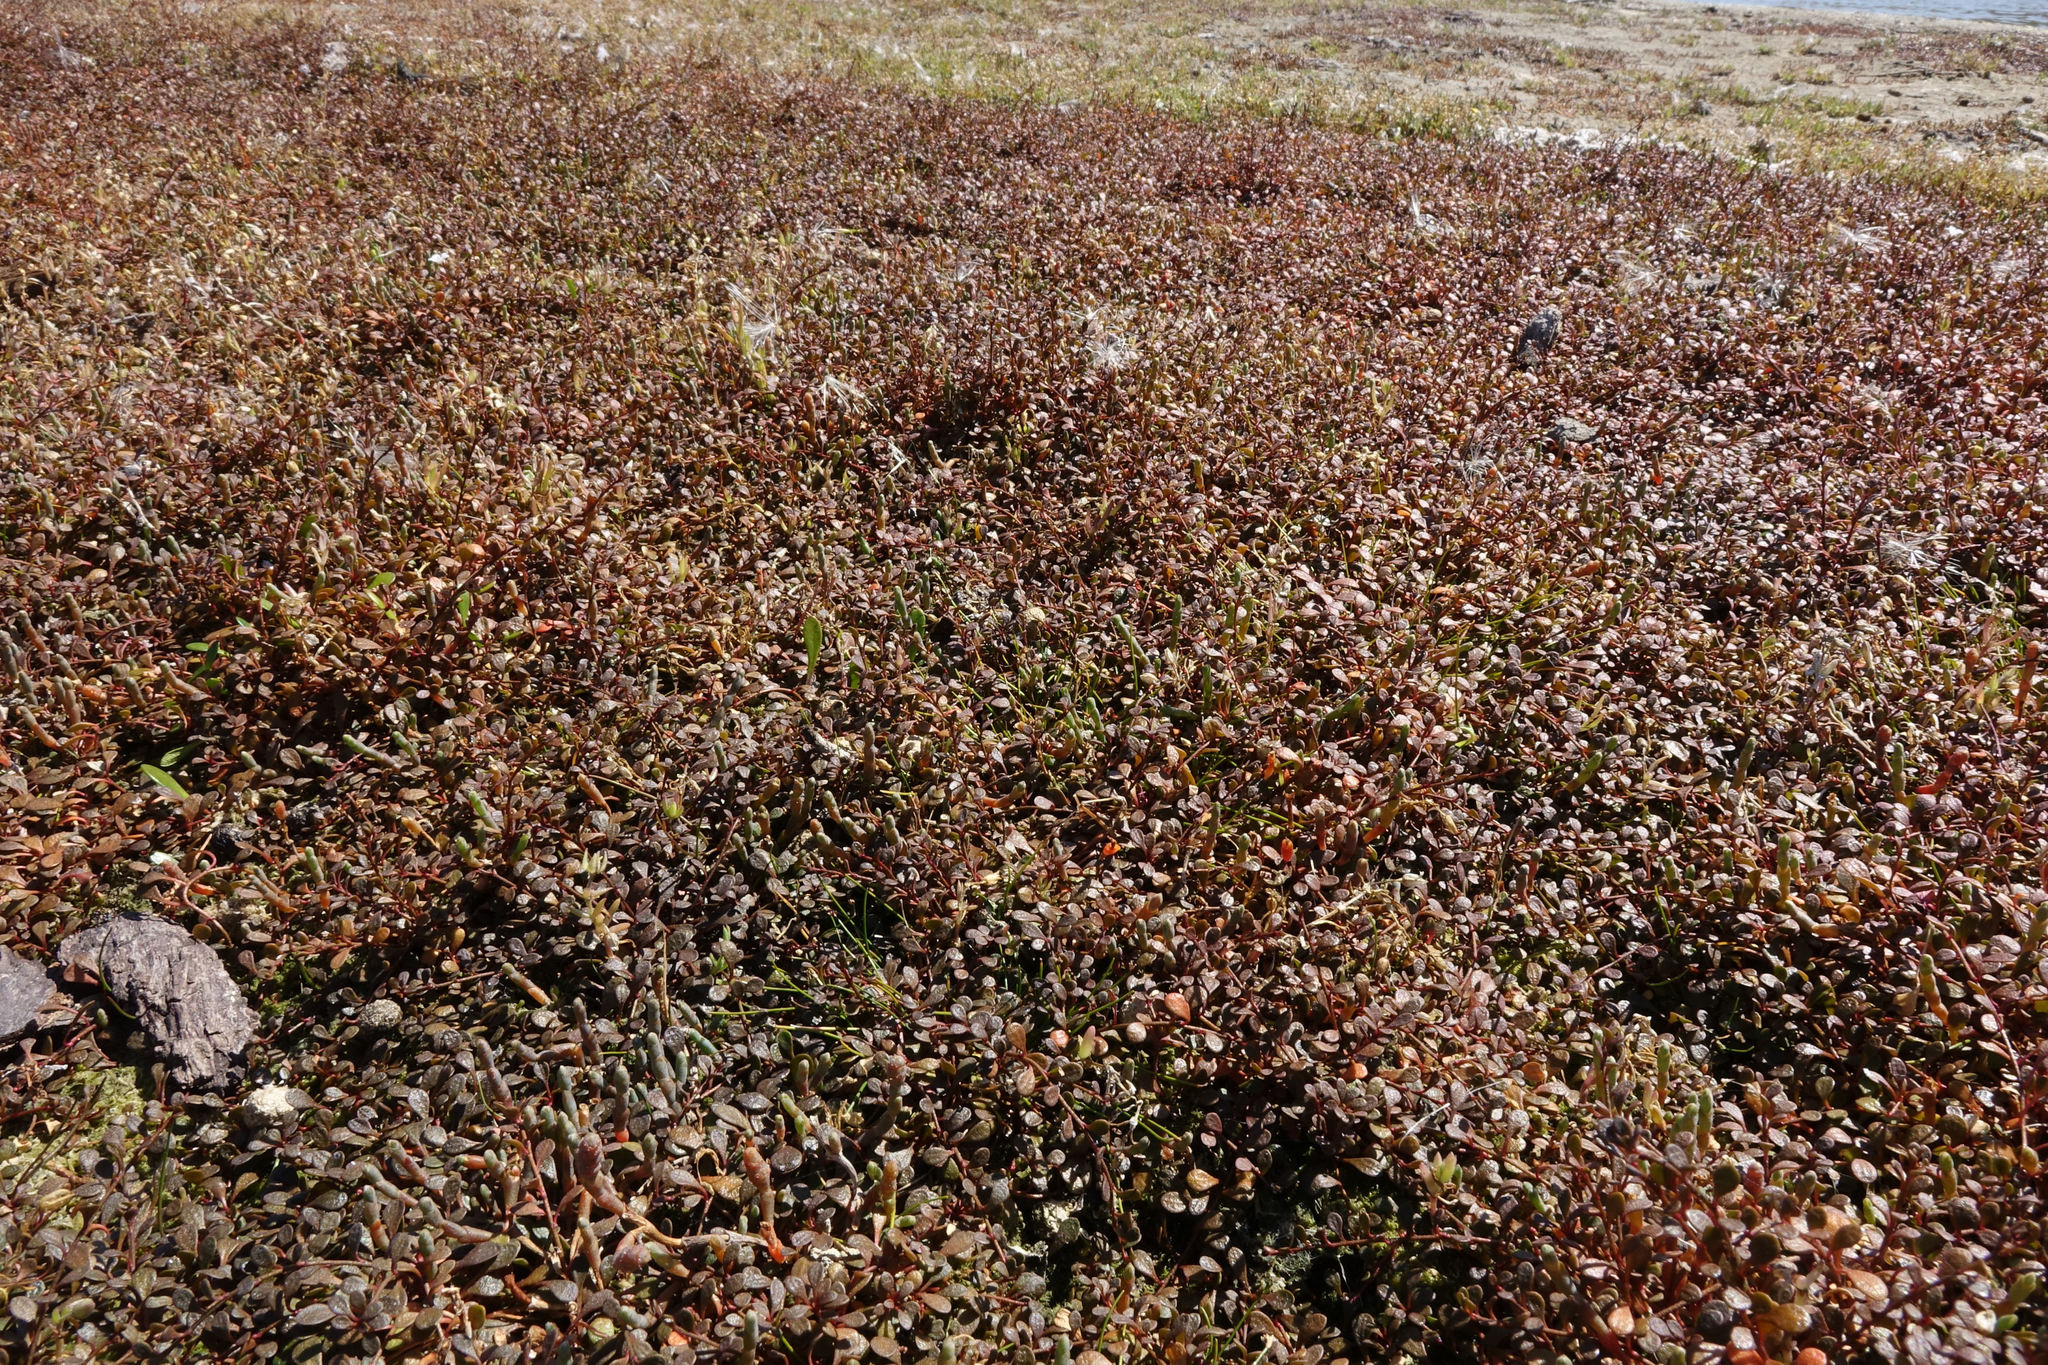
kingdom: Plantae
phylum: Tracheophyta
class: Magnoliopsida
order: Ericales
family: Primulaceae
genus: Samolus
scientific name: Samolus repens
